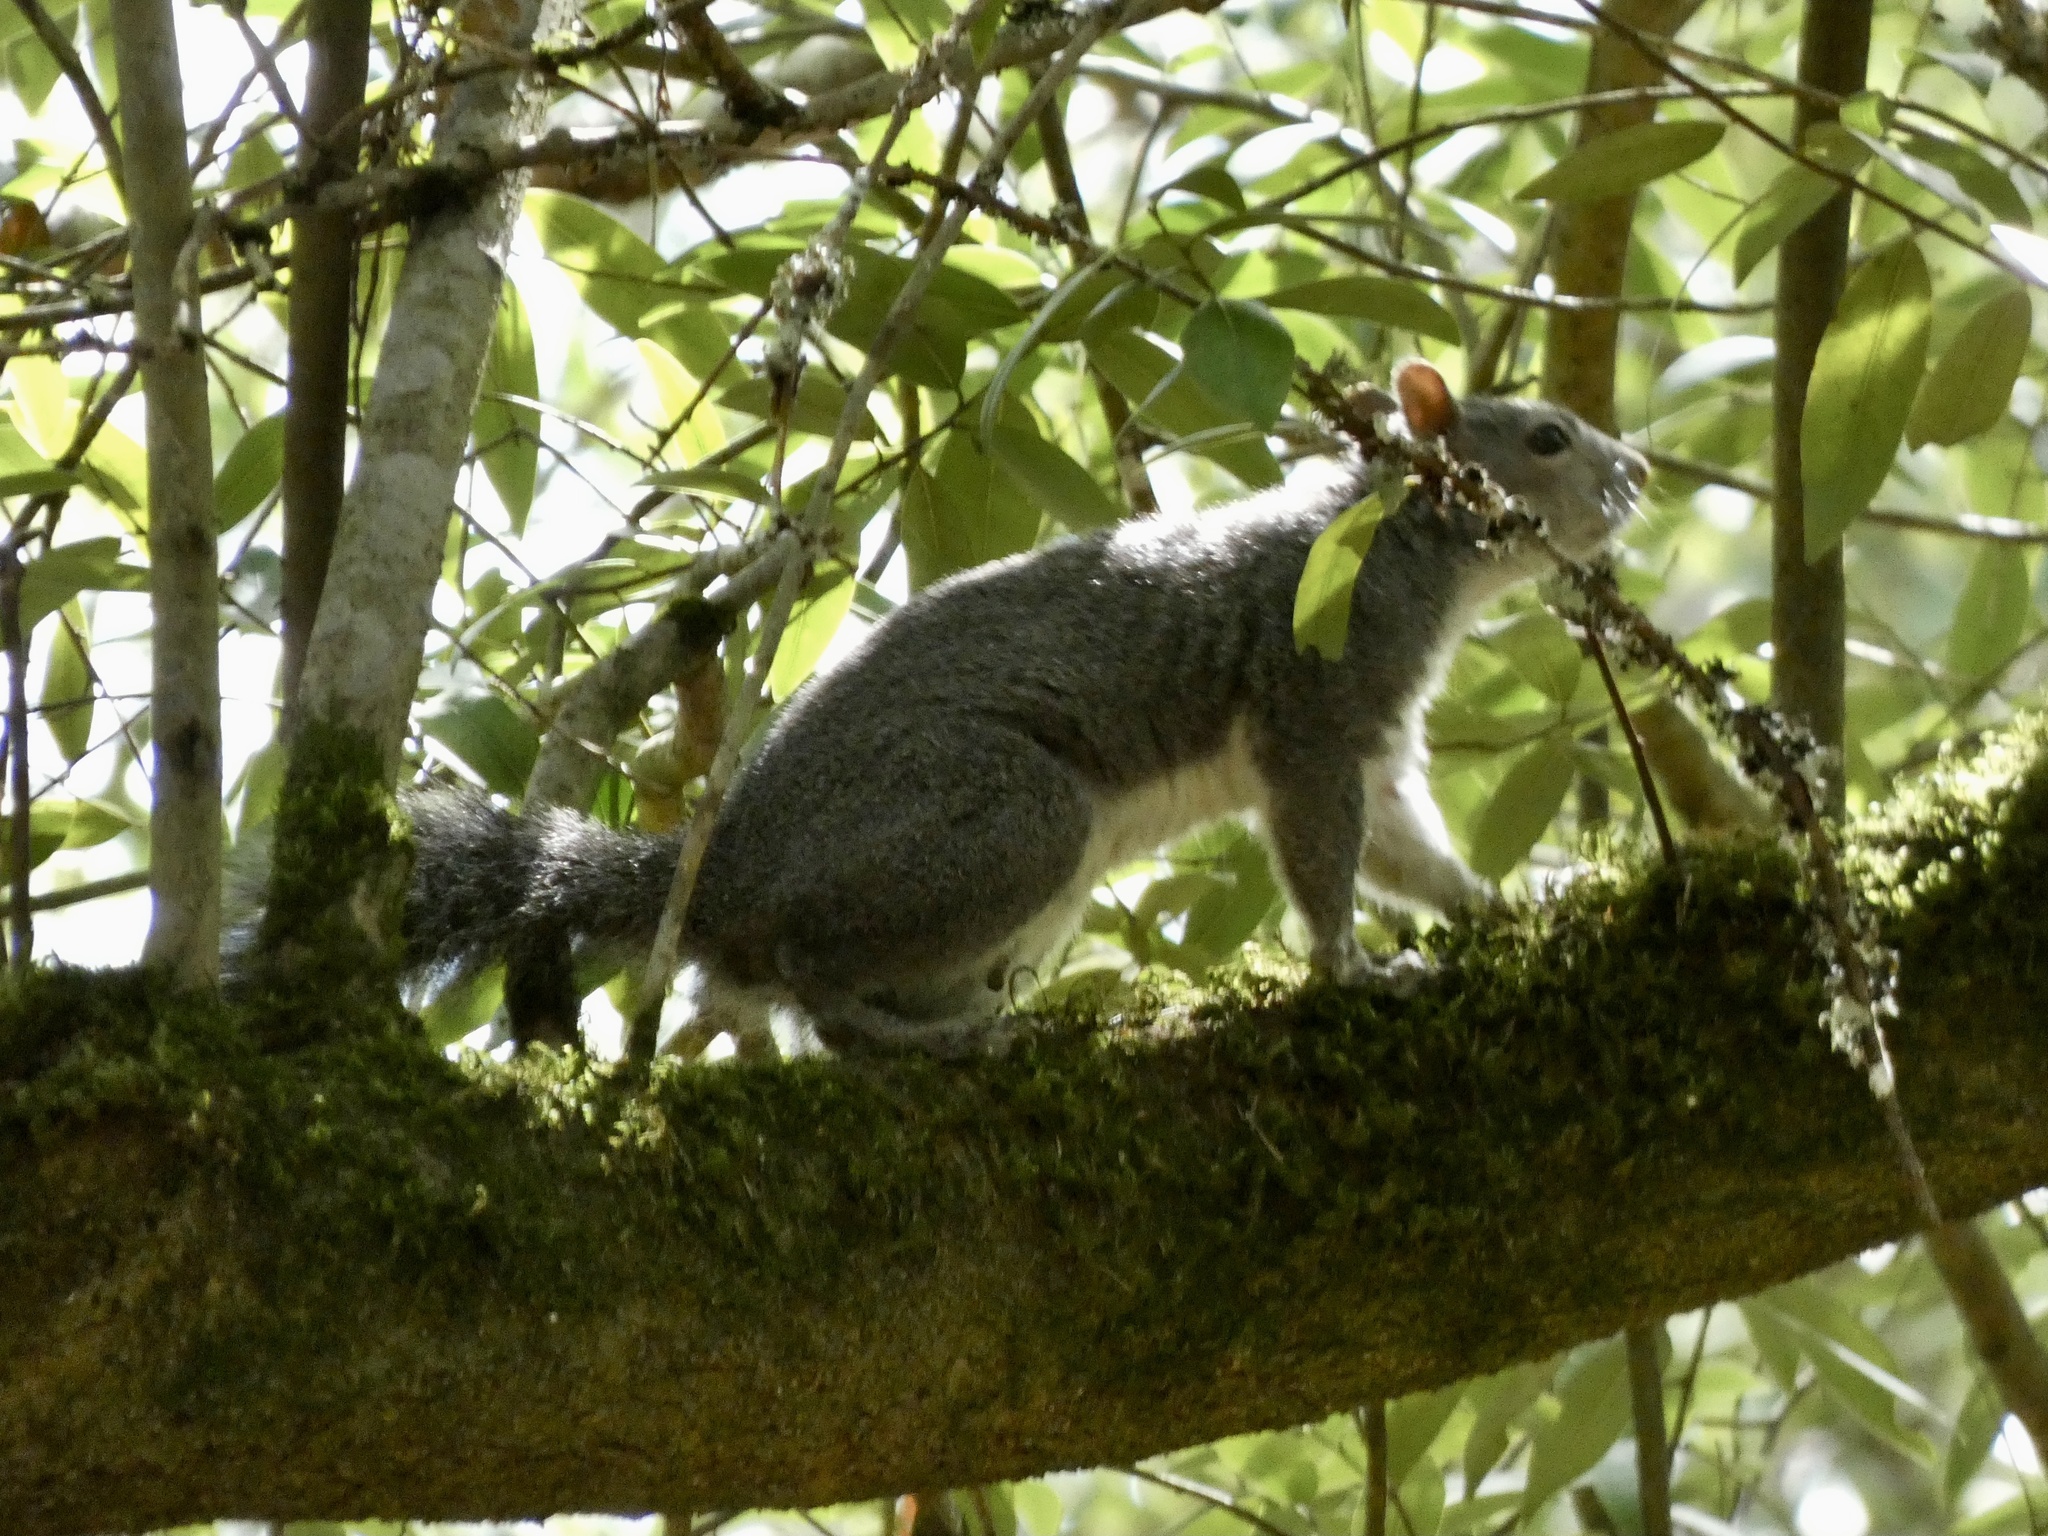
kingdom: Animalia
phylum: Chordata
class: Mammalia
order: Rodentia
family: Sciuridae
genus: Sciurus
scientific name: Sciurus griseus
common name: Western gray squirrel
